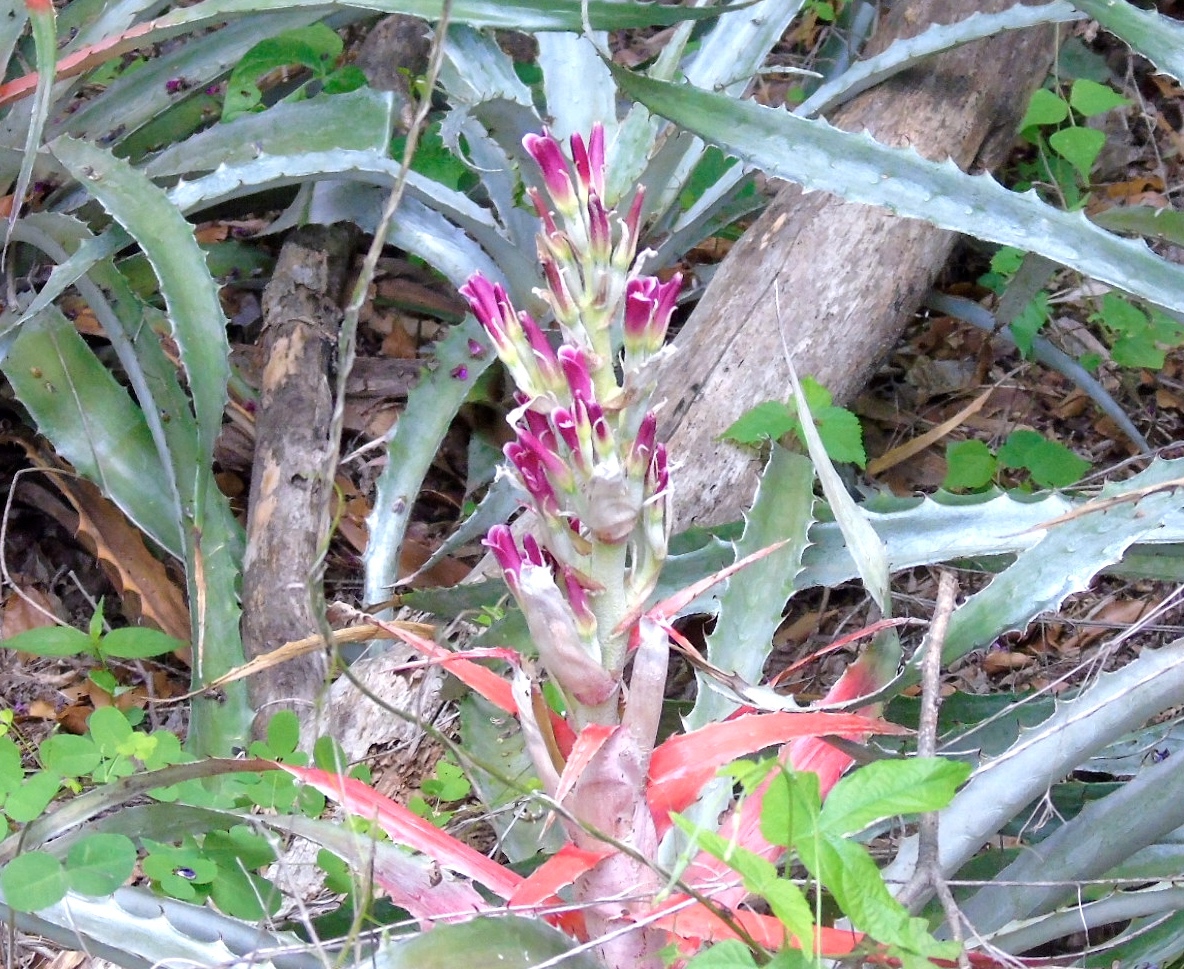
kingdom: Plantae
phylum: Tracheophyta
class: Liliopsida
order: Poales
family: Bromeliaceae
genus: Bromelia
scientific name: Bromelia pinguin
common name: Pinguin
